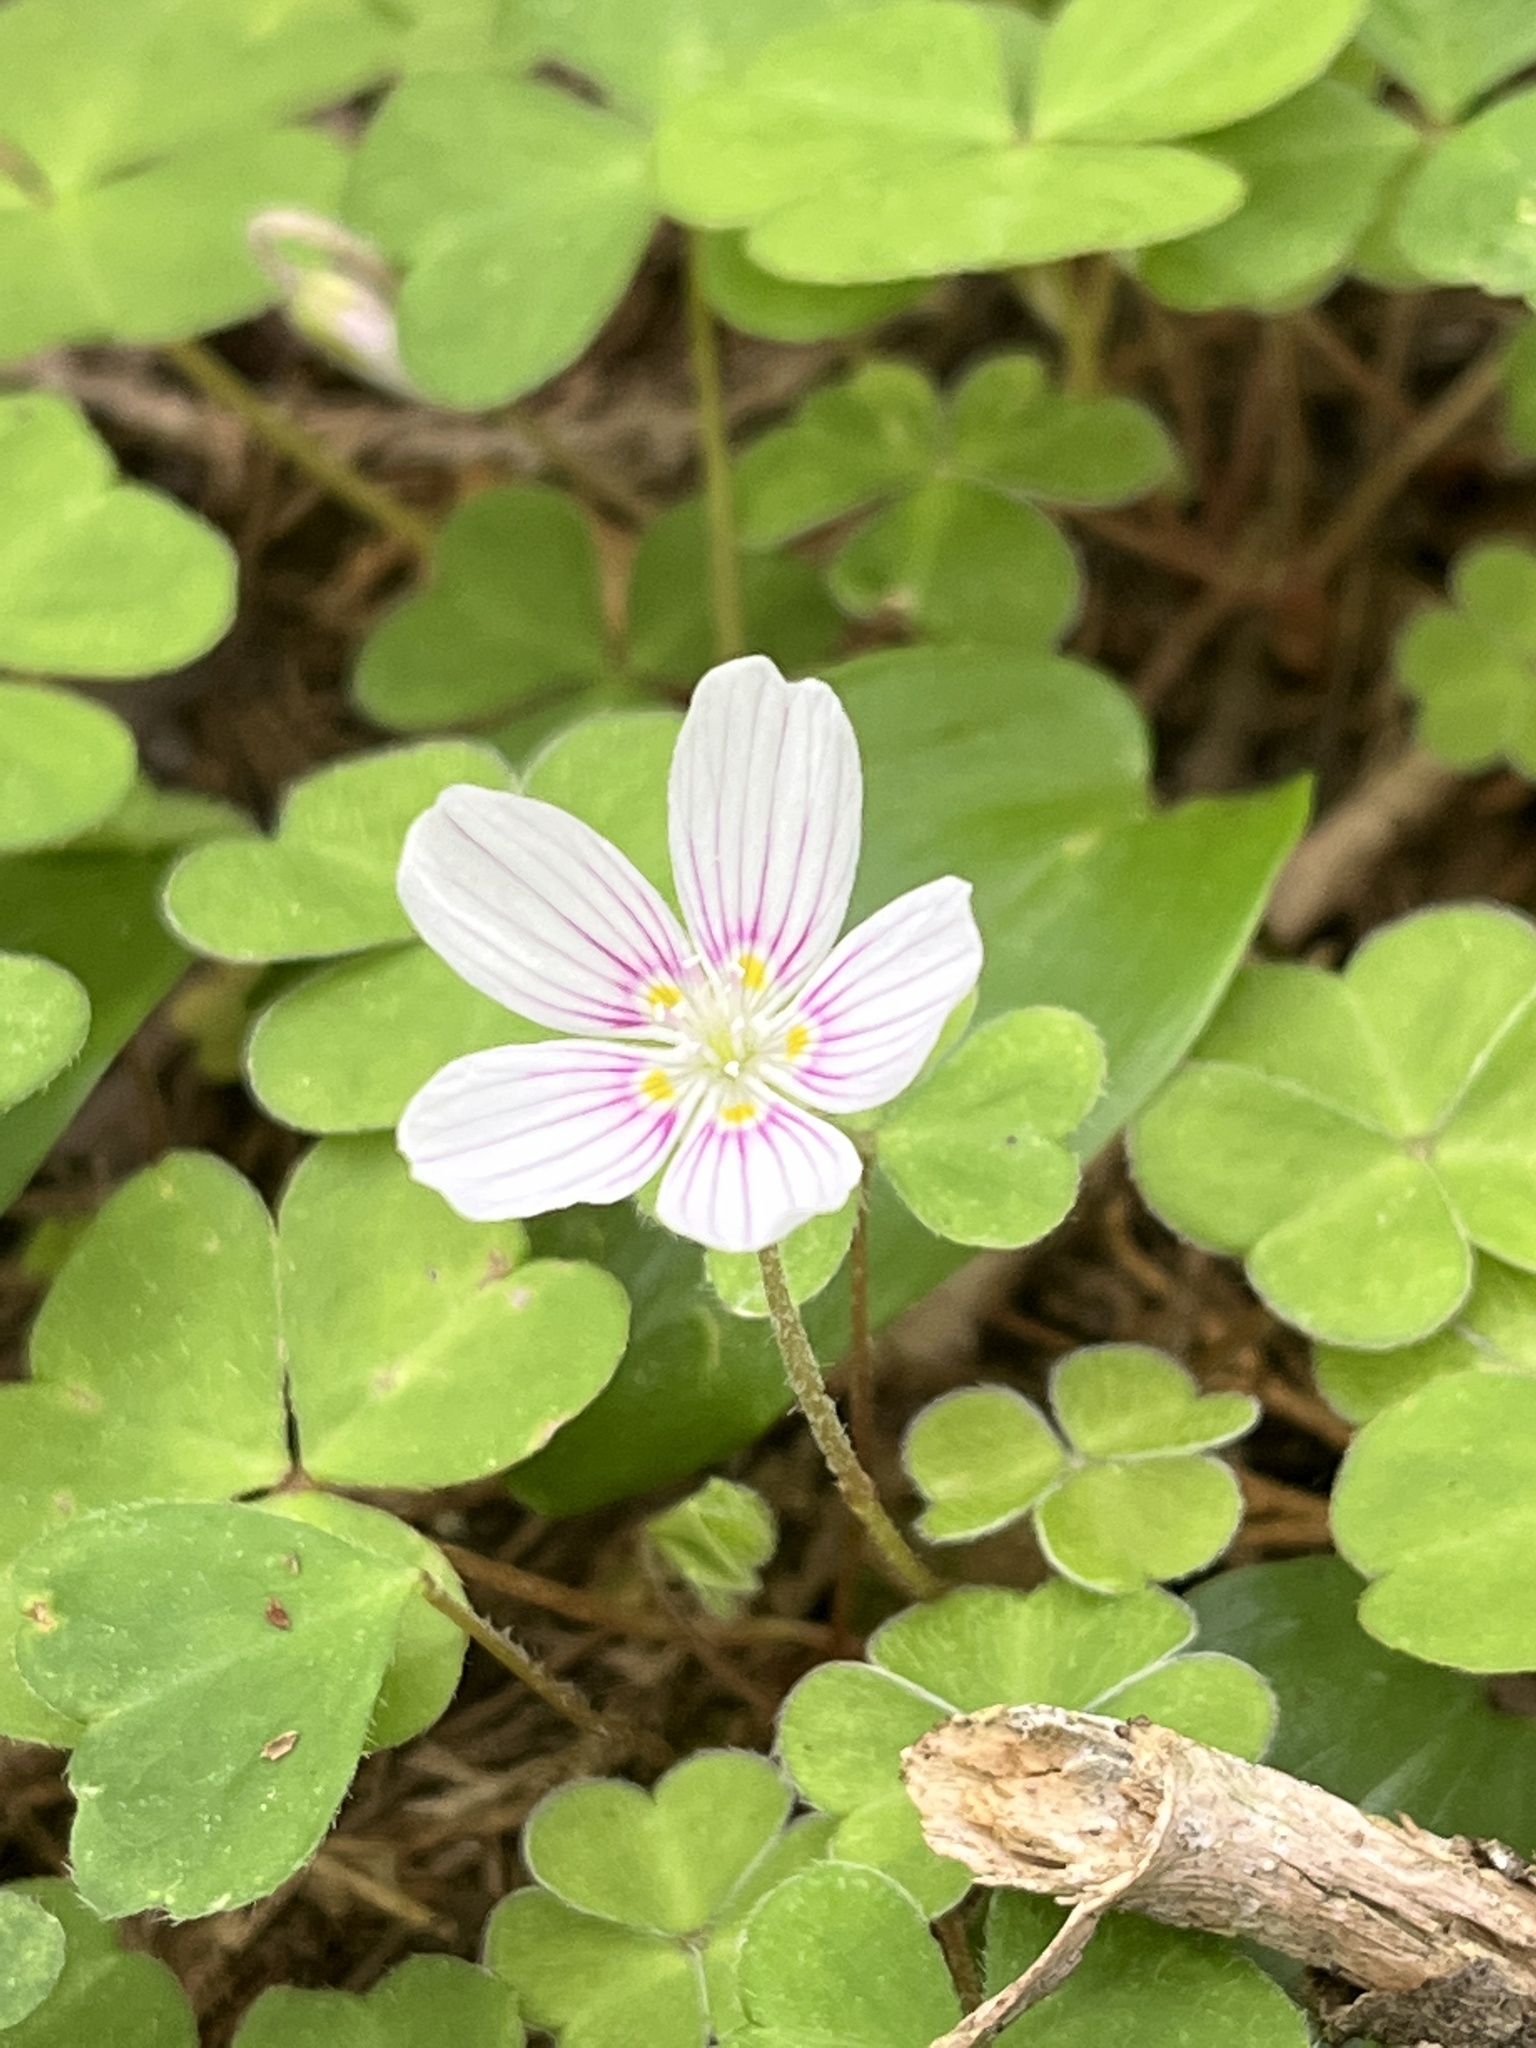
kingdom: Plantae
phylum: Tracheophyta
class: Magnoliopsida
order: Oxalidales
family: Oxalidaceae
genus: Oxalis
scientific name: Oxalis montana
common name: American wood-sorrel
